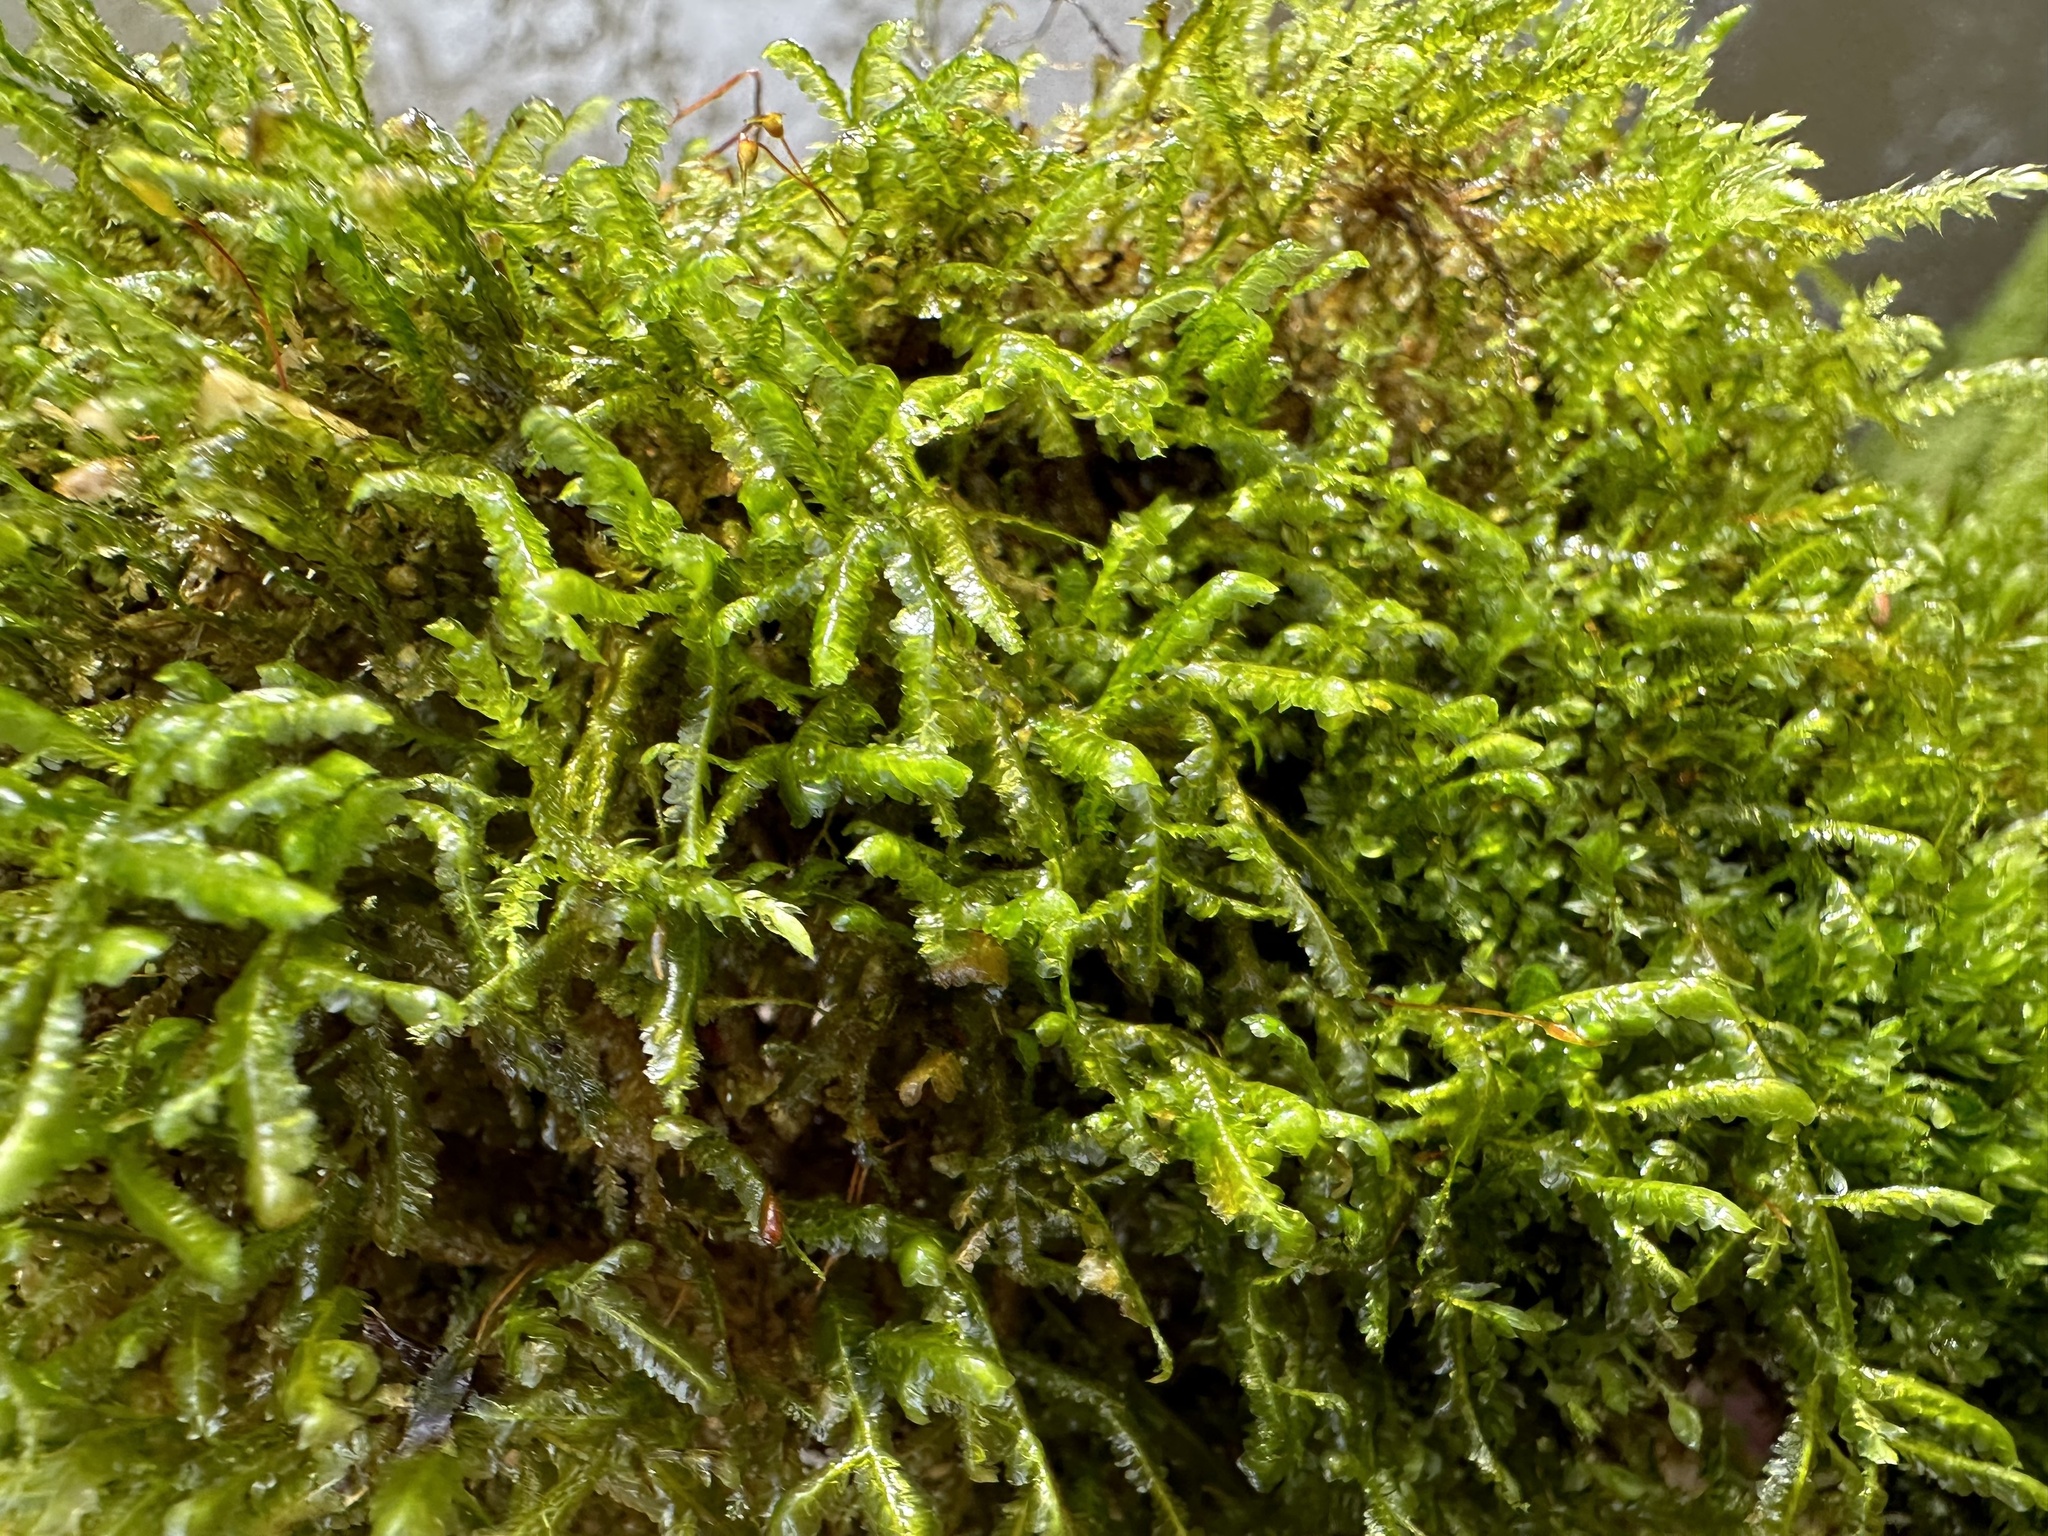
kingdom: Plantae
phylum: Bryophyta
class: Bryopsida
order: Hypnales
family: Neckeraceae
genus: Homalia
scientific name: Homalia trichomanoides
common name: Lime homalia moss
